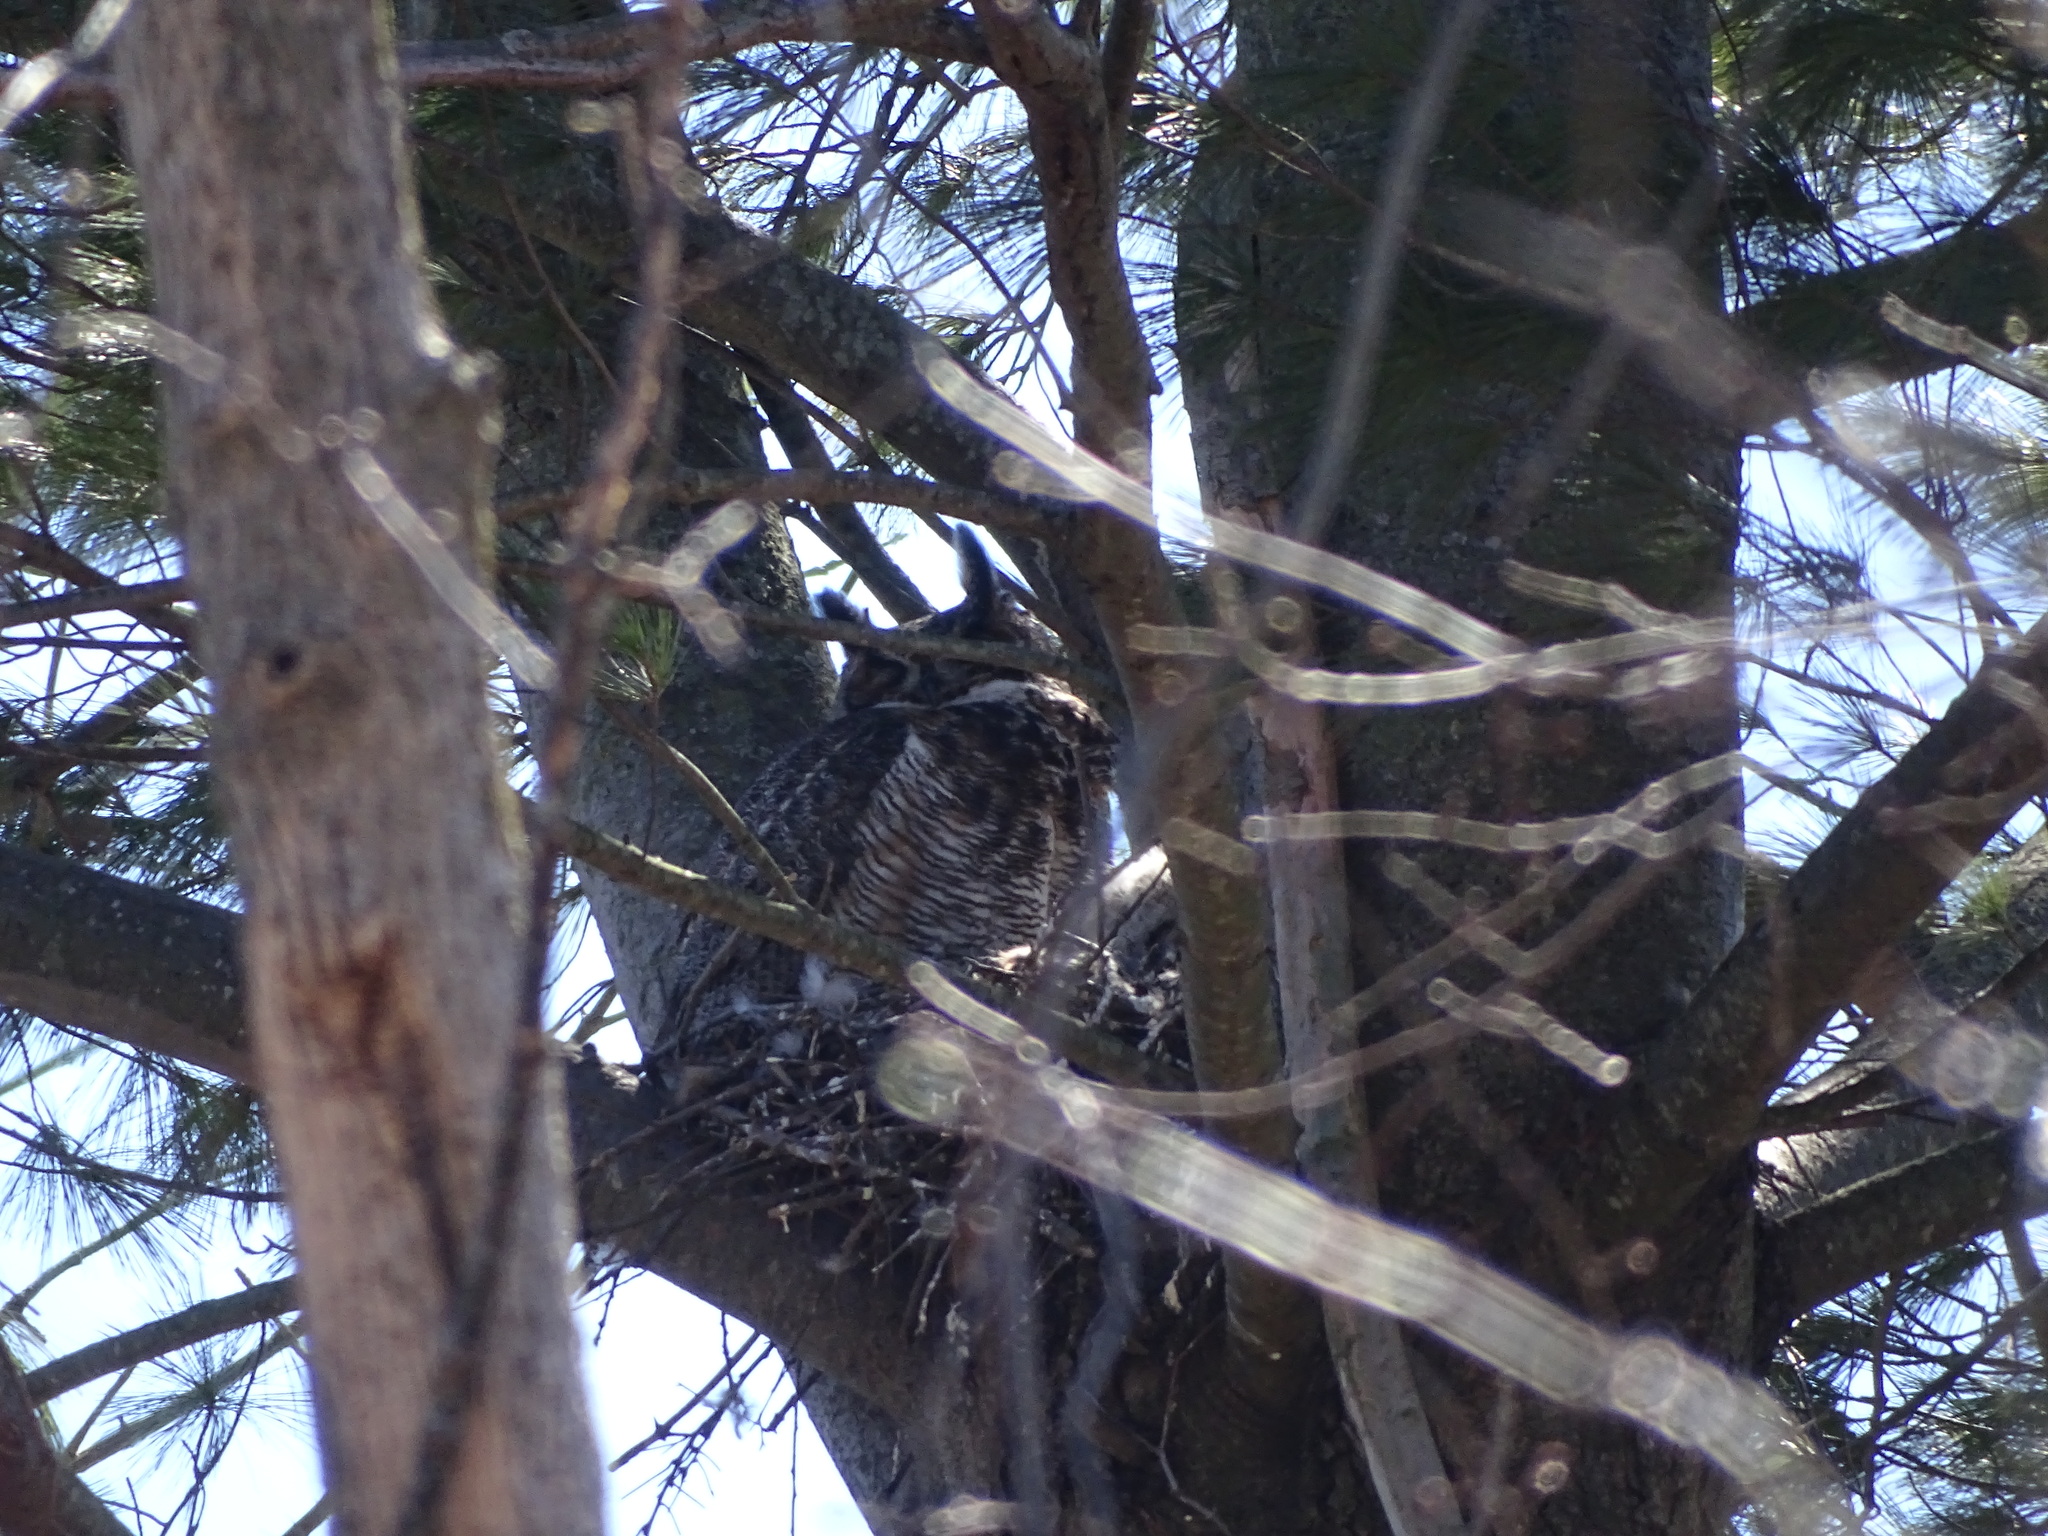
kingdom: Animalia
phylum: Chordata
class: Aves
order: Strigiformes
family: Strigidae
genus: Bubo
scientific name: Bubo virginianus
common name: Great horned owl
